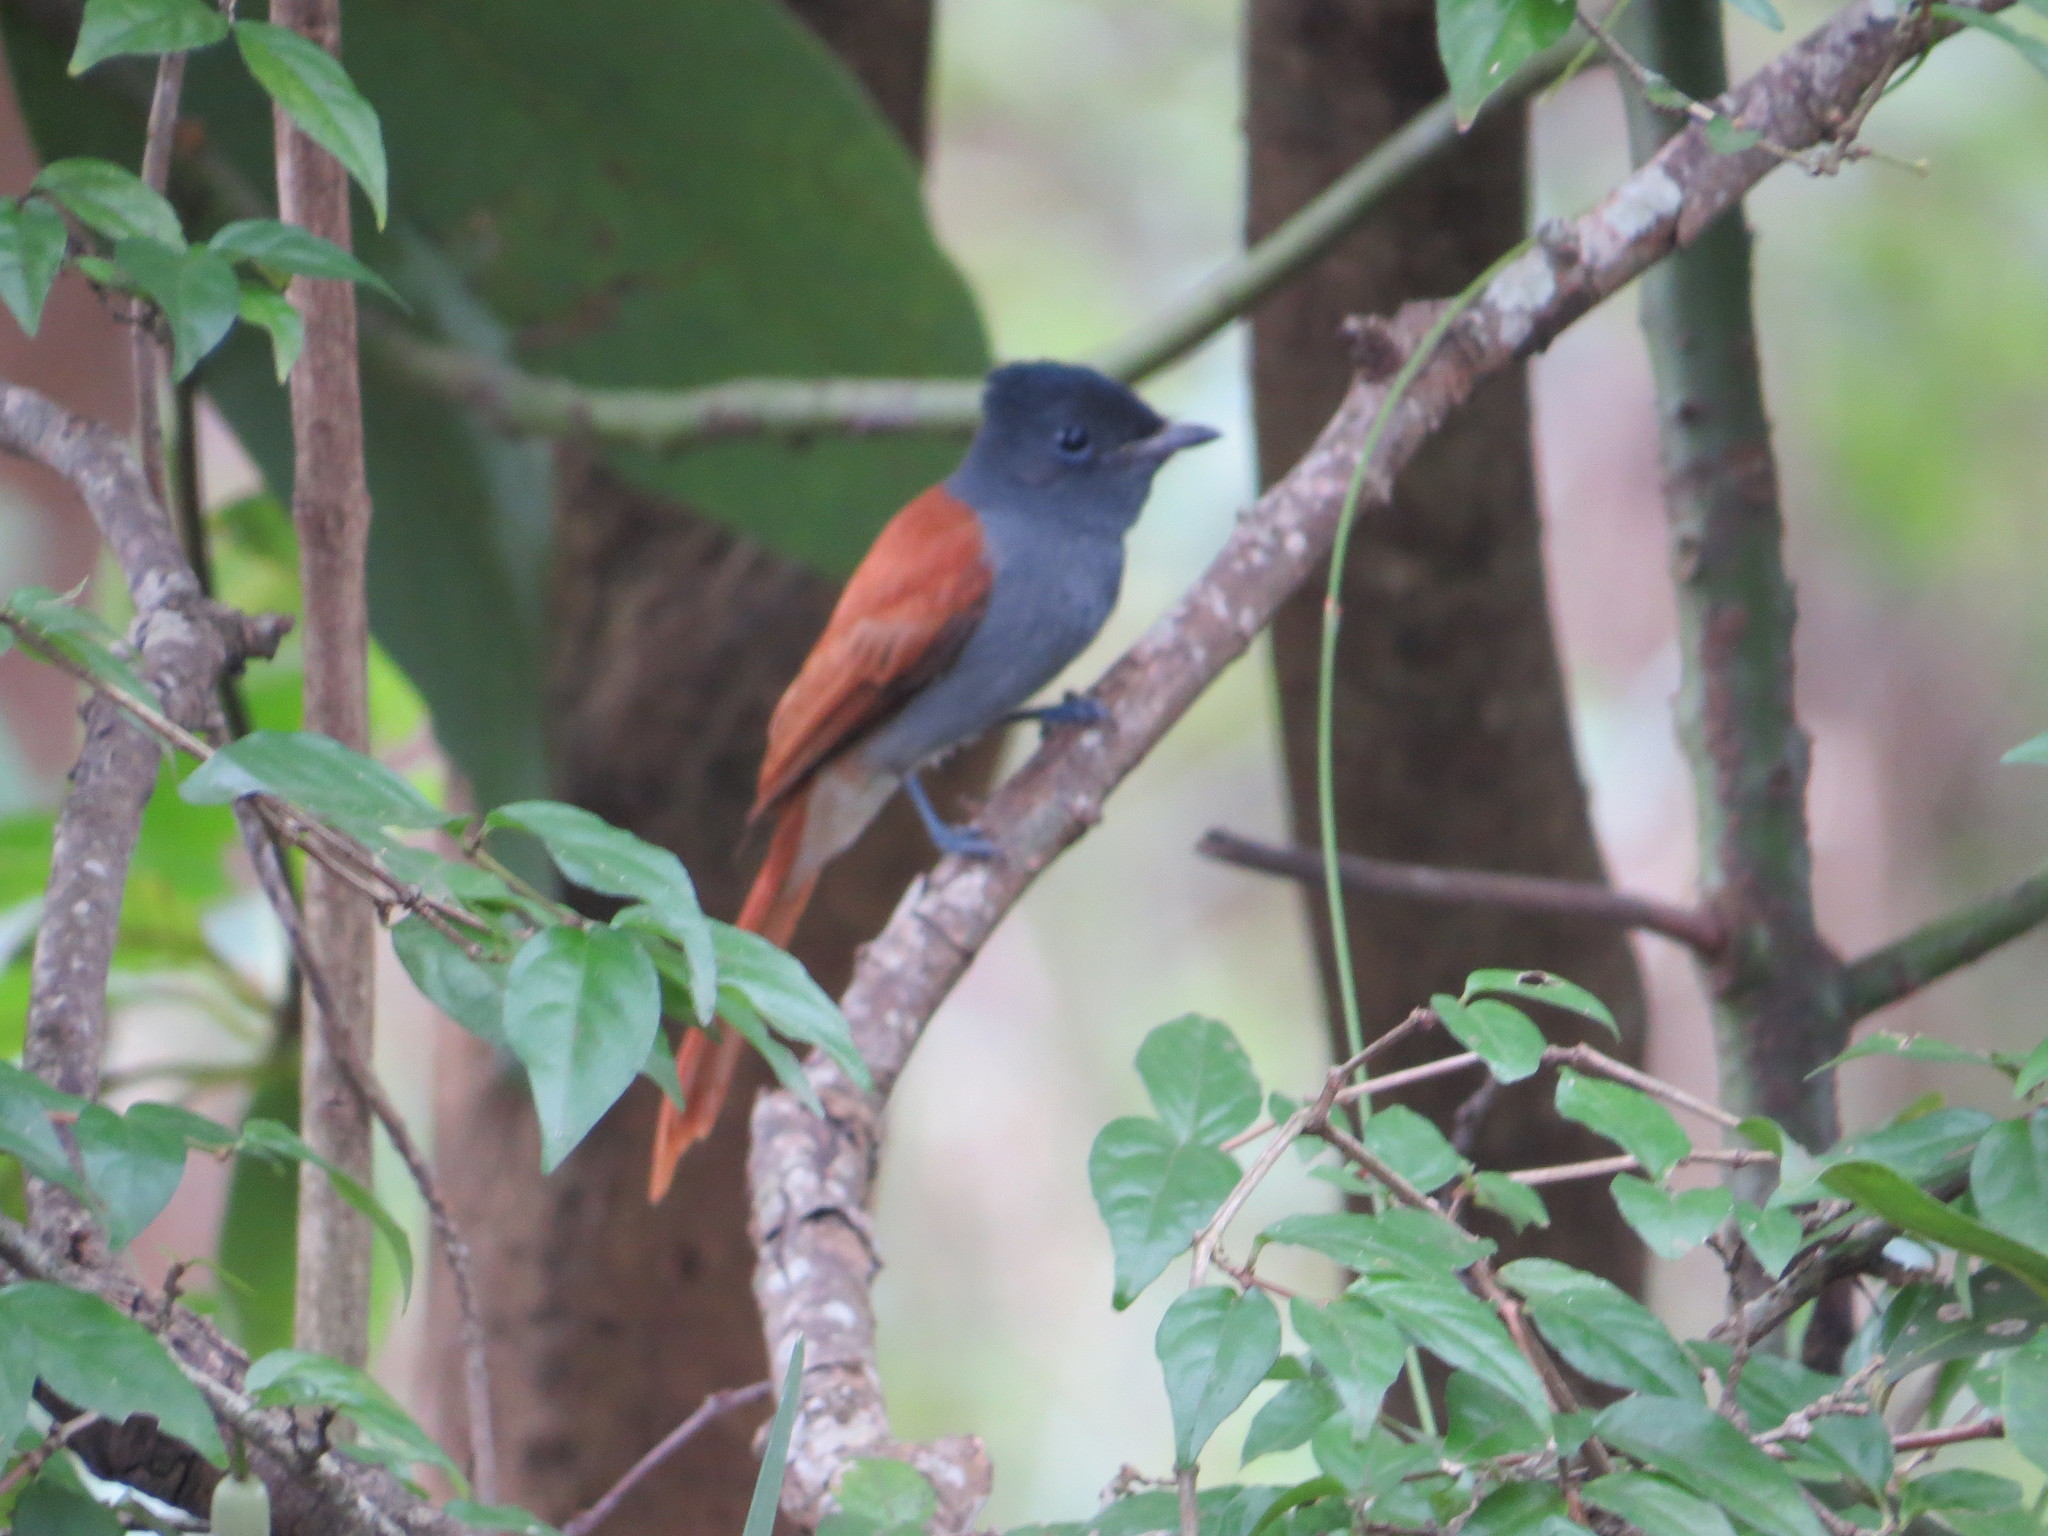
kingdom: Animalia
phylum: Chordata
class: Aves
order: Passeriformes
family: Monarchidae
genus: Terpsiphone
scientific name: Terpsiphone viridis
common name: African paradise flycatcher
